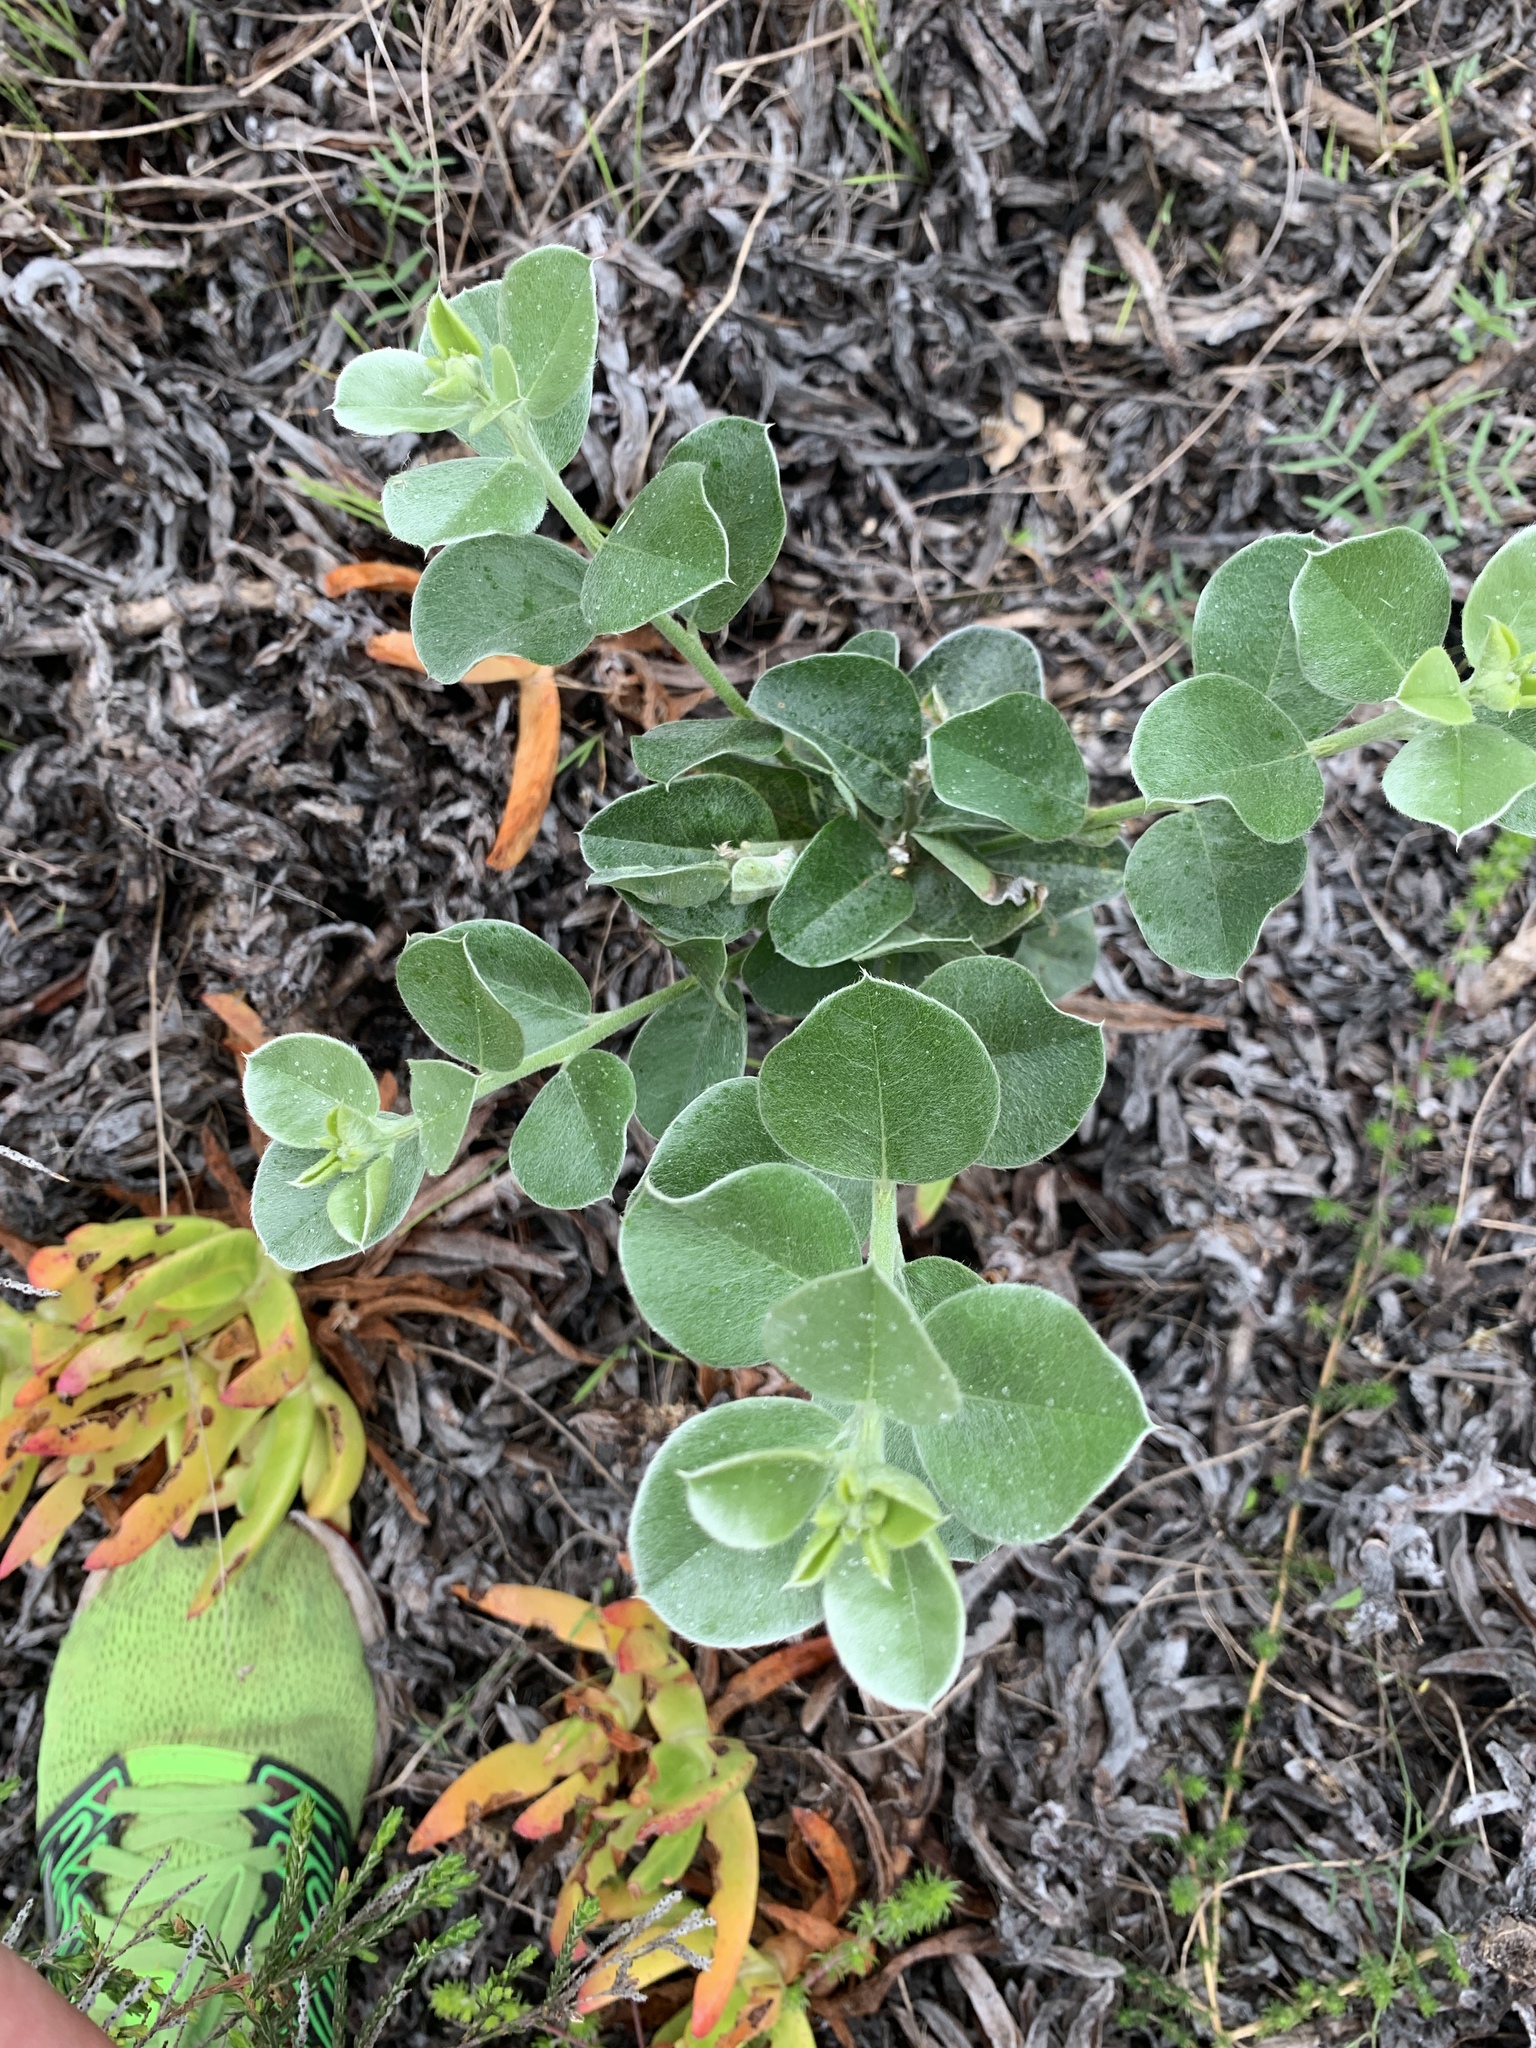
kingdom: Plantae
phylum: Tracheophyta
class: Magnoliopsida
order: Fabales
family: Fabaceae
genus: Podalyria
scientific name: Podalyria calyptrata
